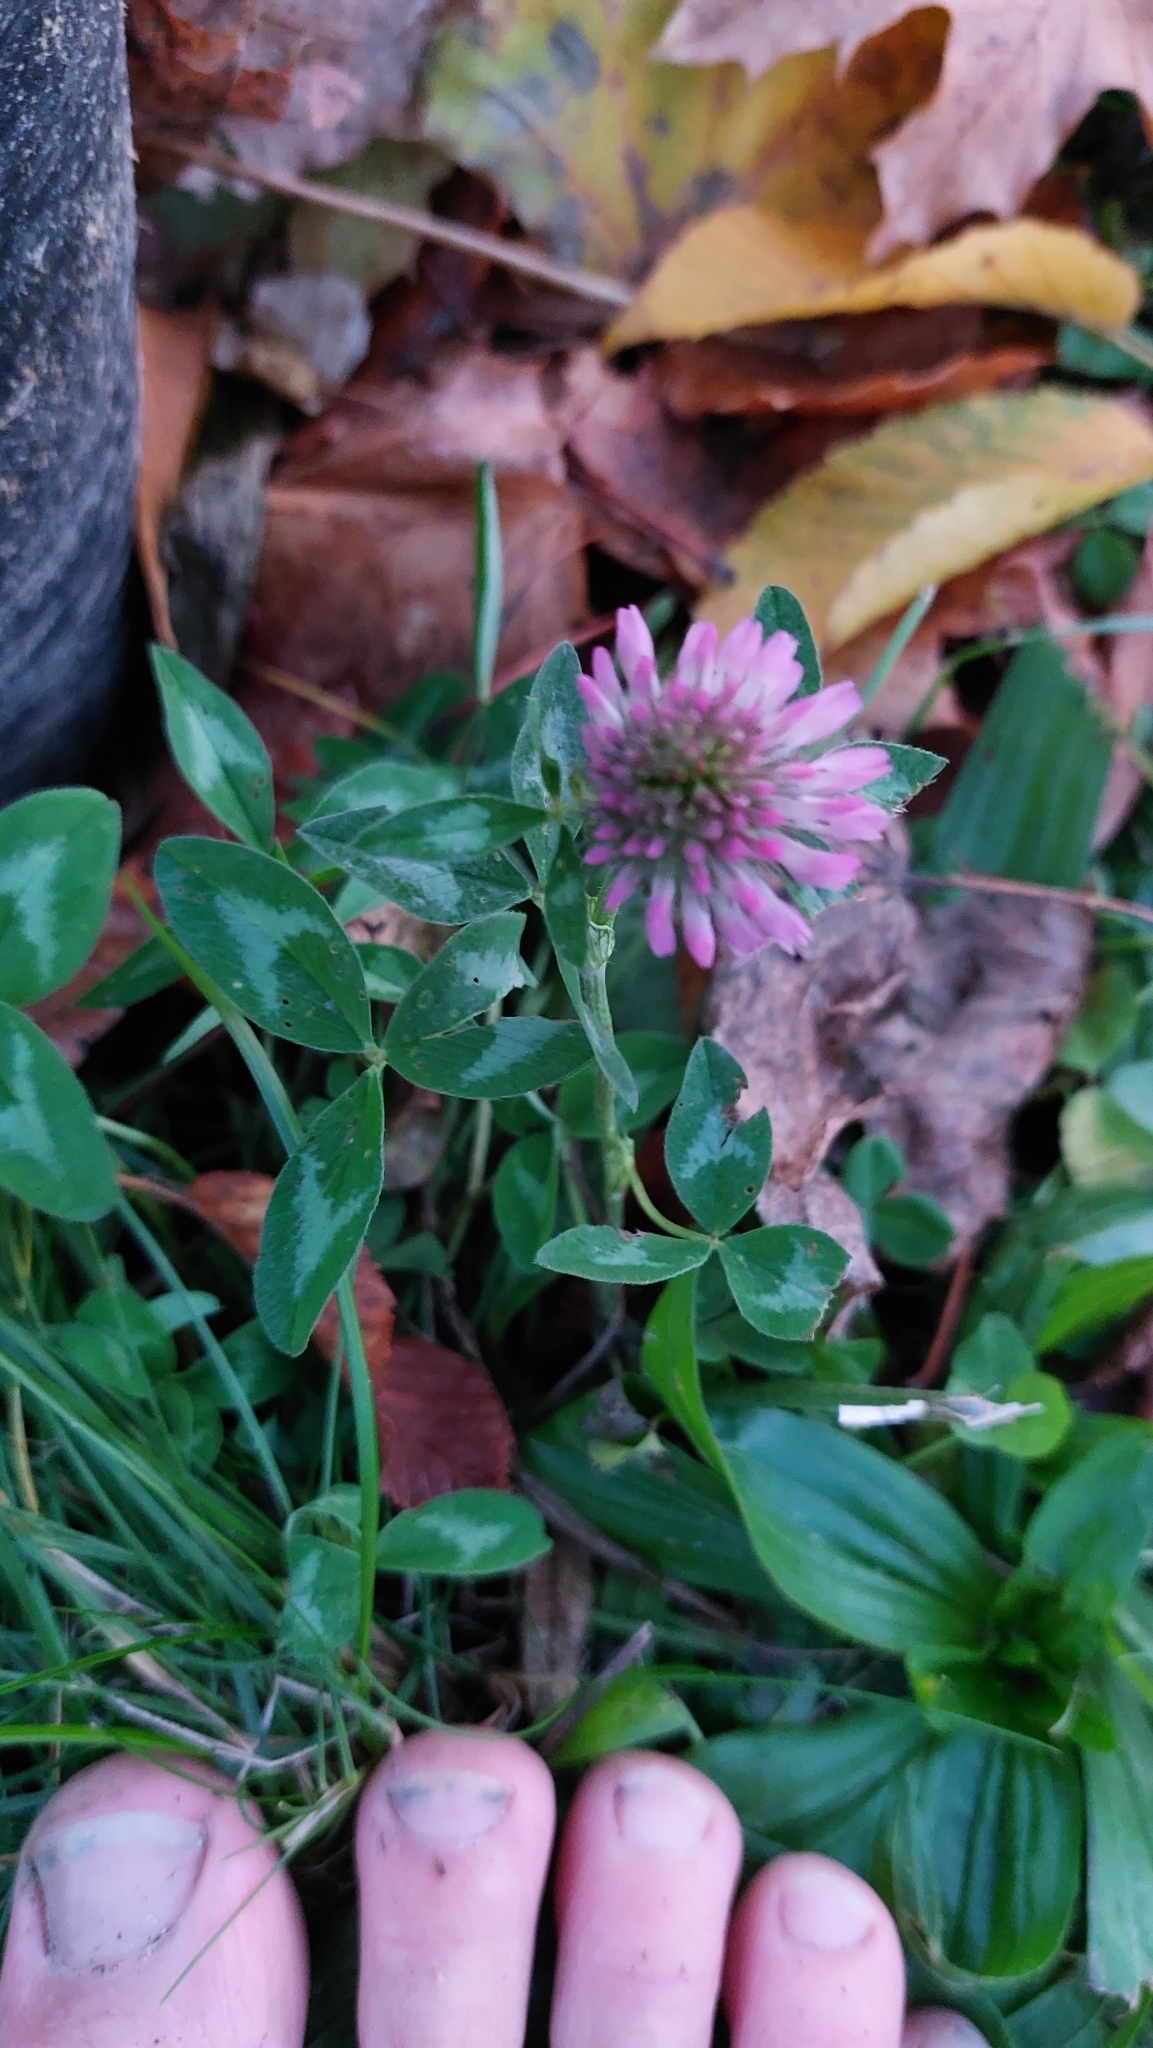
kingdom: Plantae
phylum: Tracheophyta
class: Magnoliopsida
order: Fabales
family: Fabaceae
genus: Trifolium
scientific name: Trifolium pratense
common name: Red clover
